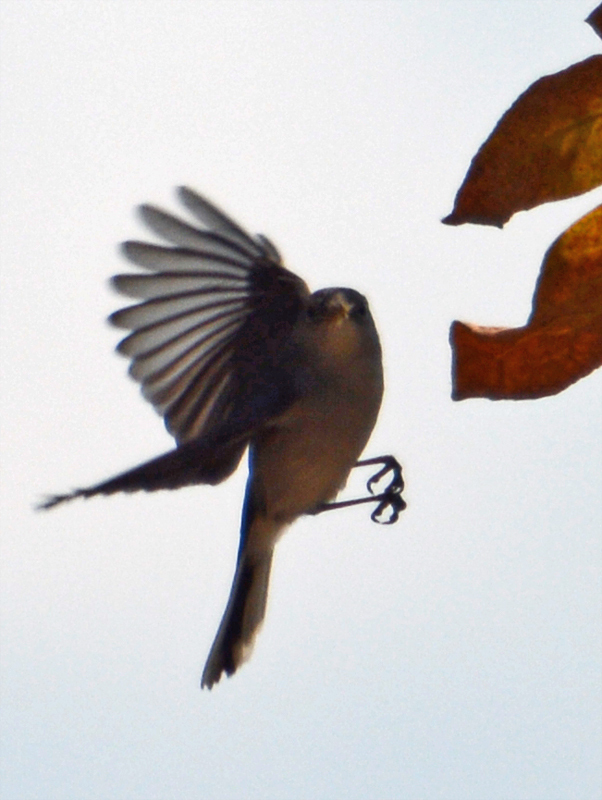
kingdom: Animalia
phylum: Chordata
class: Aves
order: Passeriformes
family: Polioptilidae
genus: Polioptila
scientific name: Polioptila caerulea
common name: Blue-gray gnatcatcher
